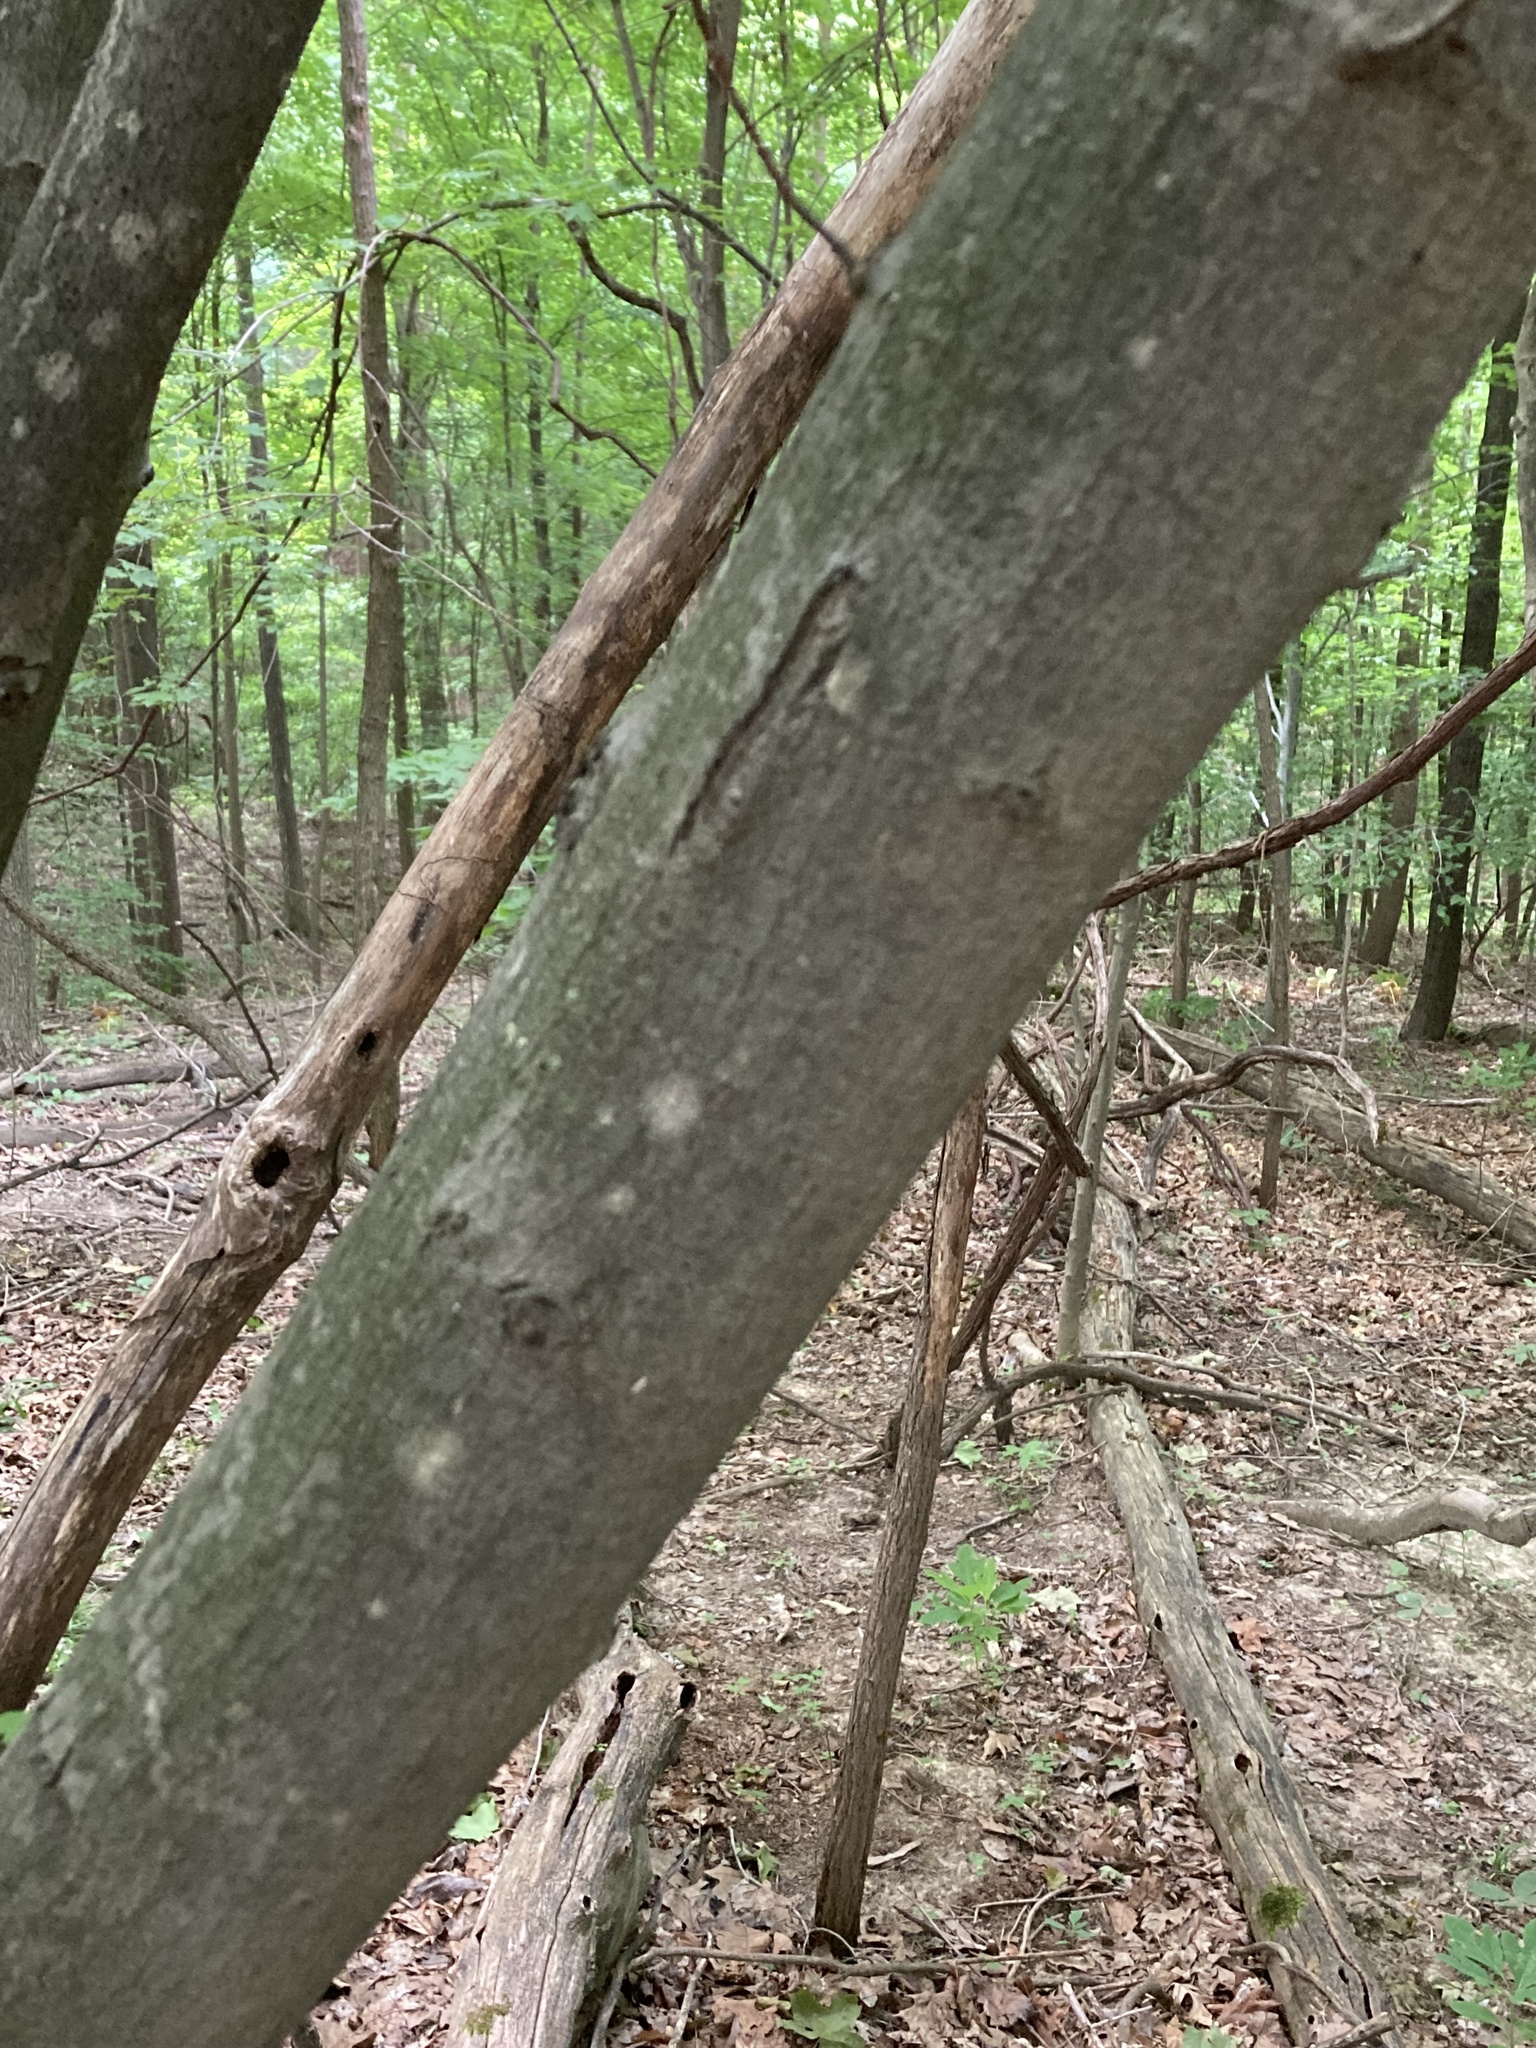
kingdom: Plantae
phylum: Tracheophyta
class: Magnoliopsida
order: Sapindales
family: Sapindaceae
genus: Acer
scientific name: Acer rubrum
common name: Red maple
